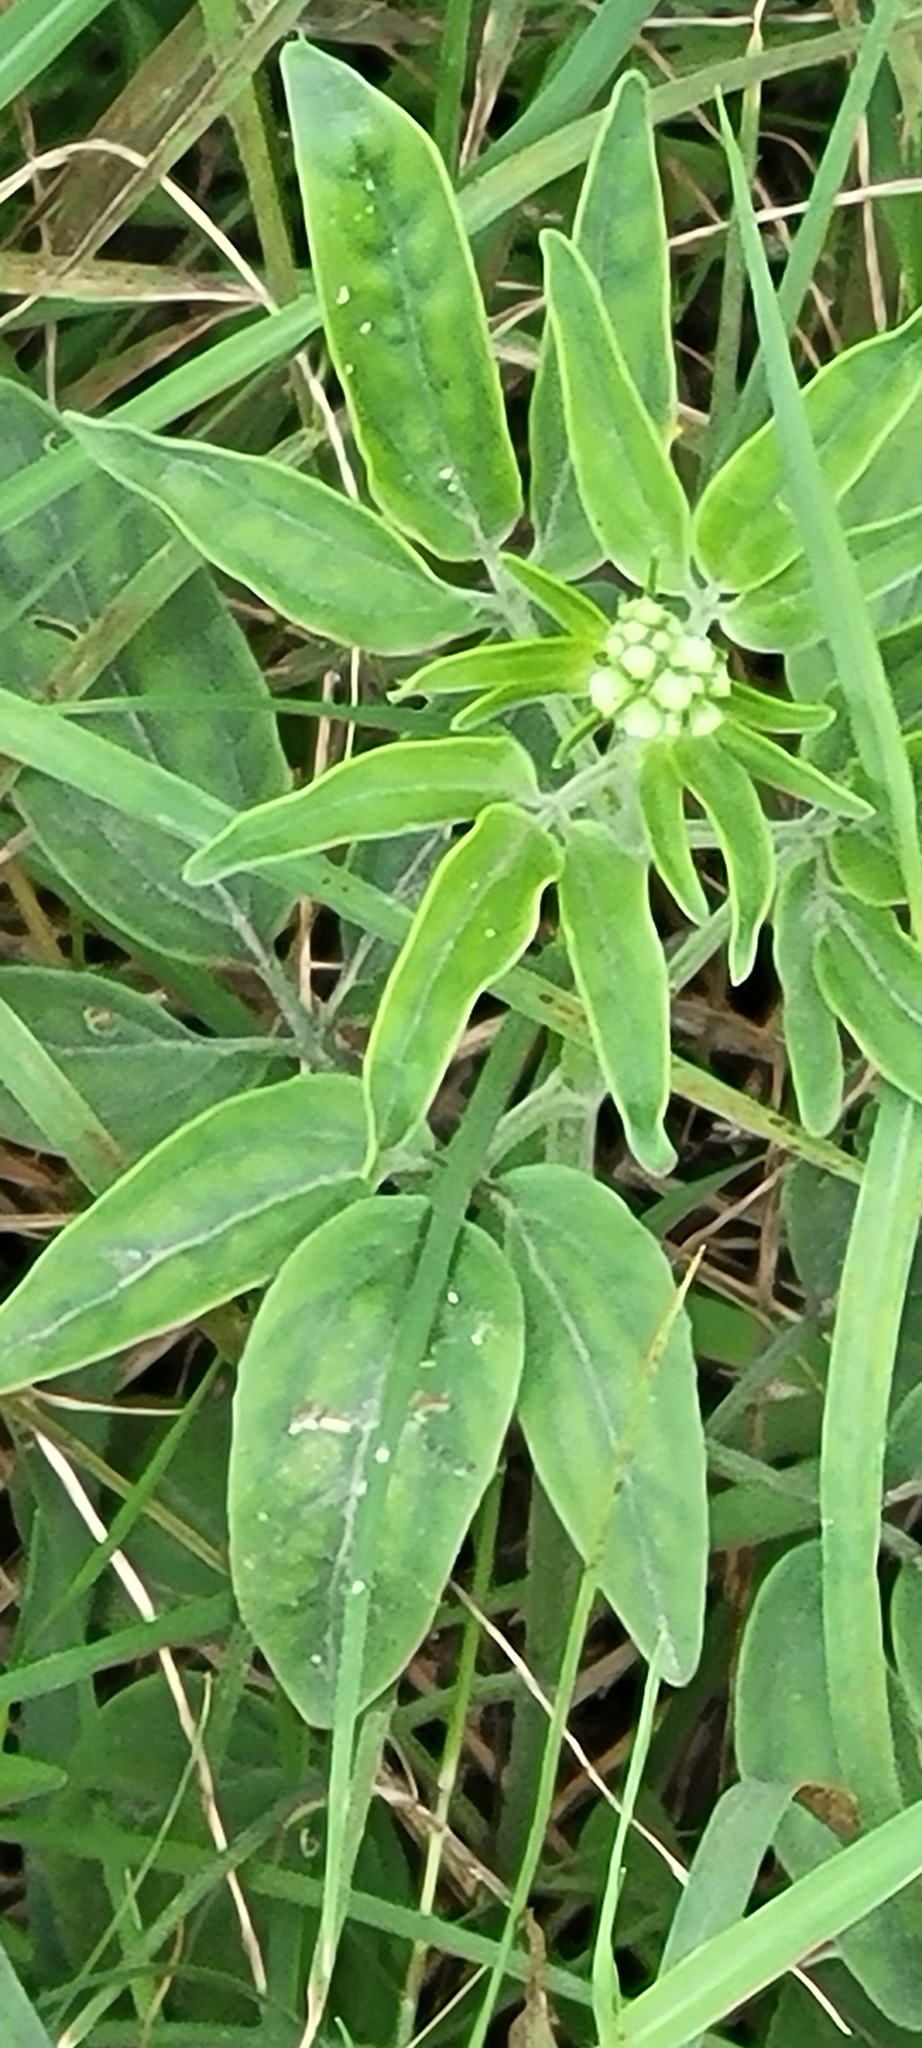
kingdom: Plantae
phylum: Tracheophyta
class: Magnoliopsida
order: Asterales
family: Asteraceae
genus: Florestina
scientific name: Florestina tripteris
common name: Sticky florestina
